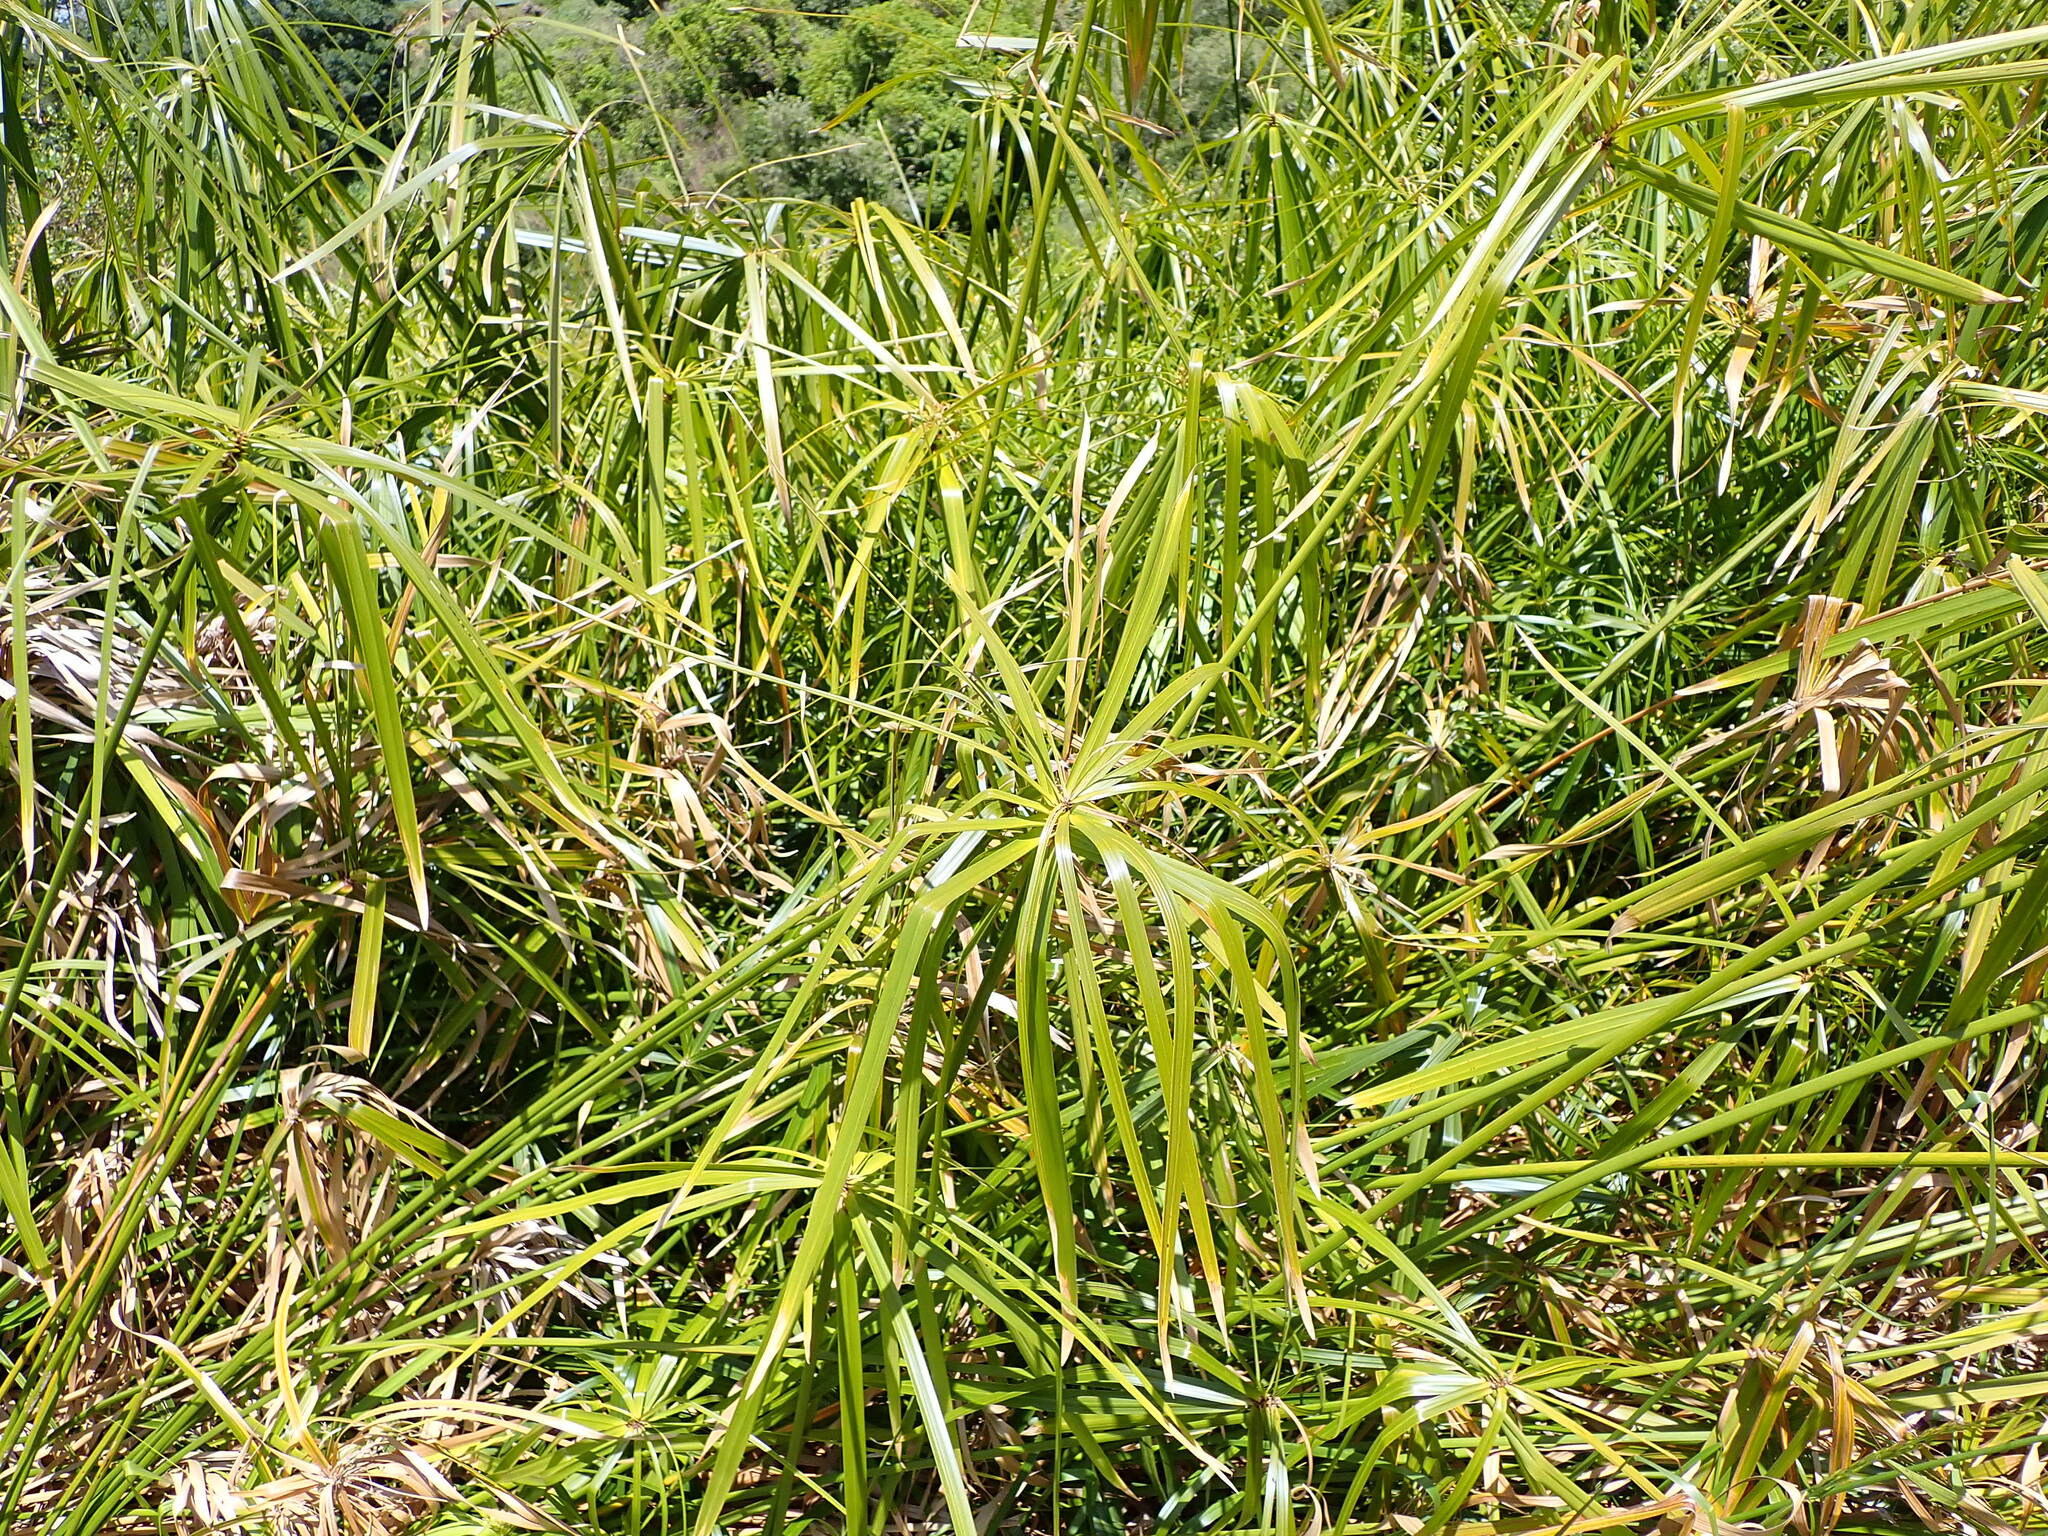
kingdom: Plantae
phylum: Tracheophyta
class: Liliopsida
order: Poales
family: Cyperaceae
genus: Cyperus
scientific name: Cyperus alternifolius
